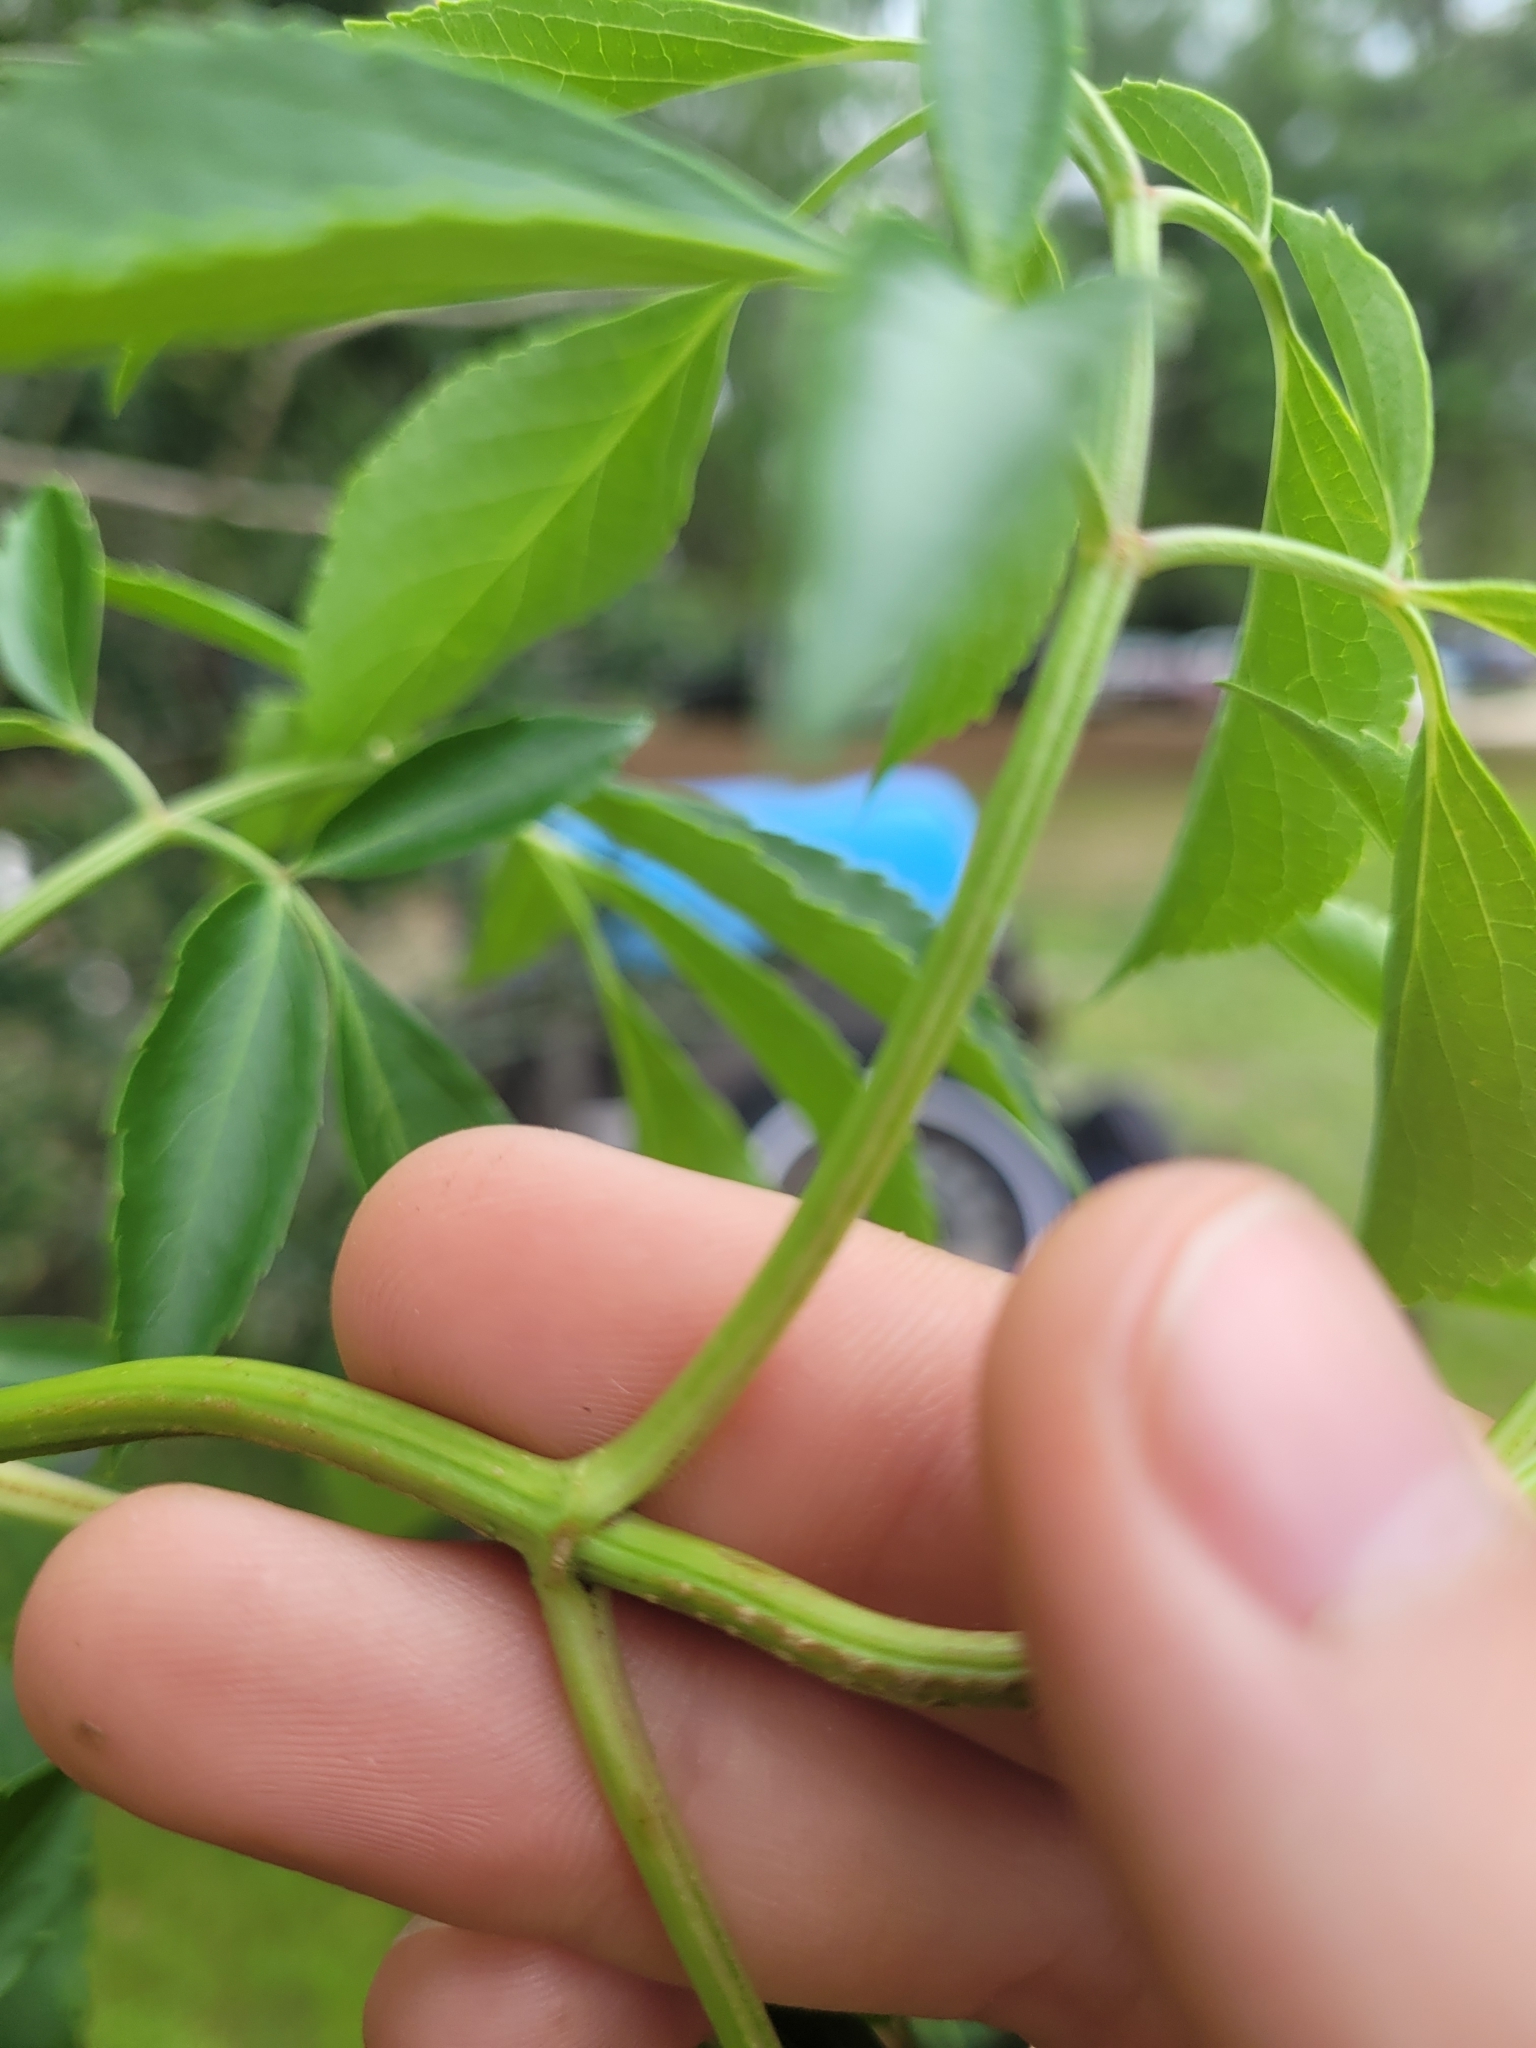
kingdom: Plantae
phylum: Tracheophyta
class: Magnoliopsida
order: Dipsacales
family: Viburnaceae
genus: Sambucus
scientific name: Sambucus canadensis
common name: American elder
